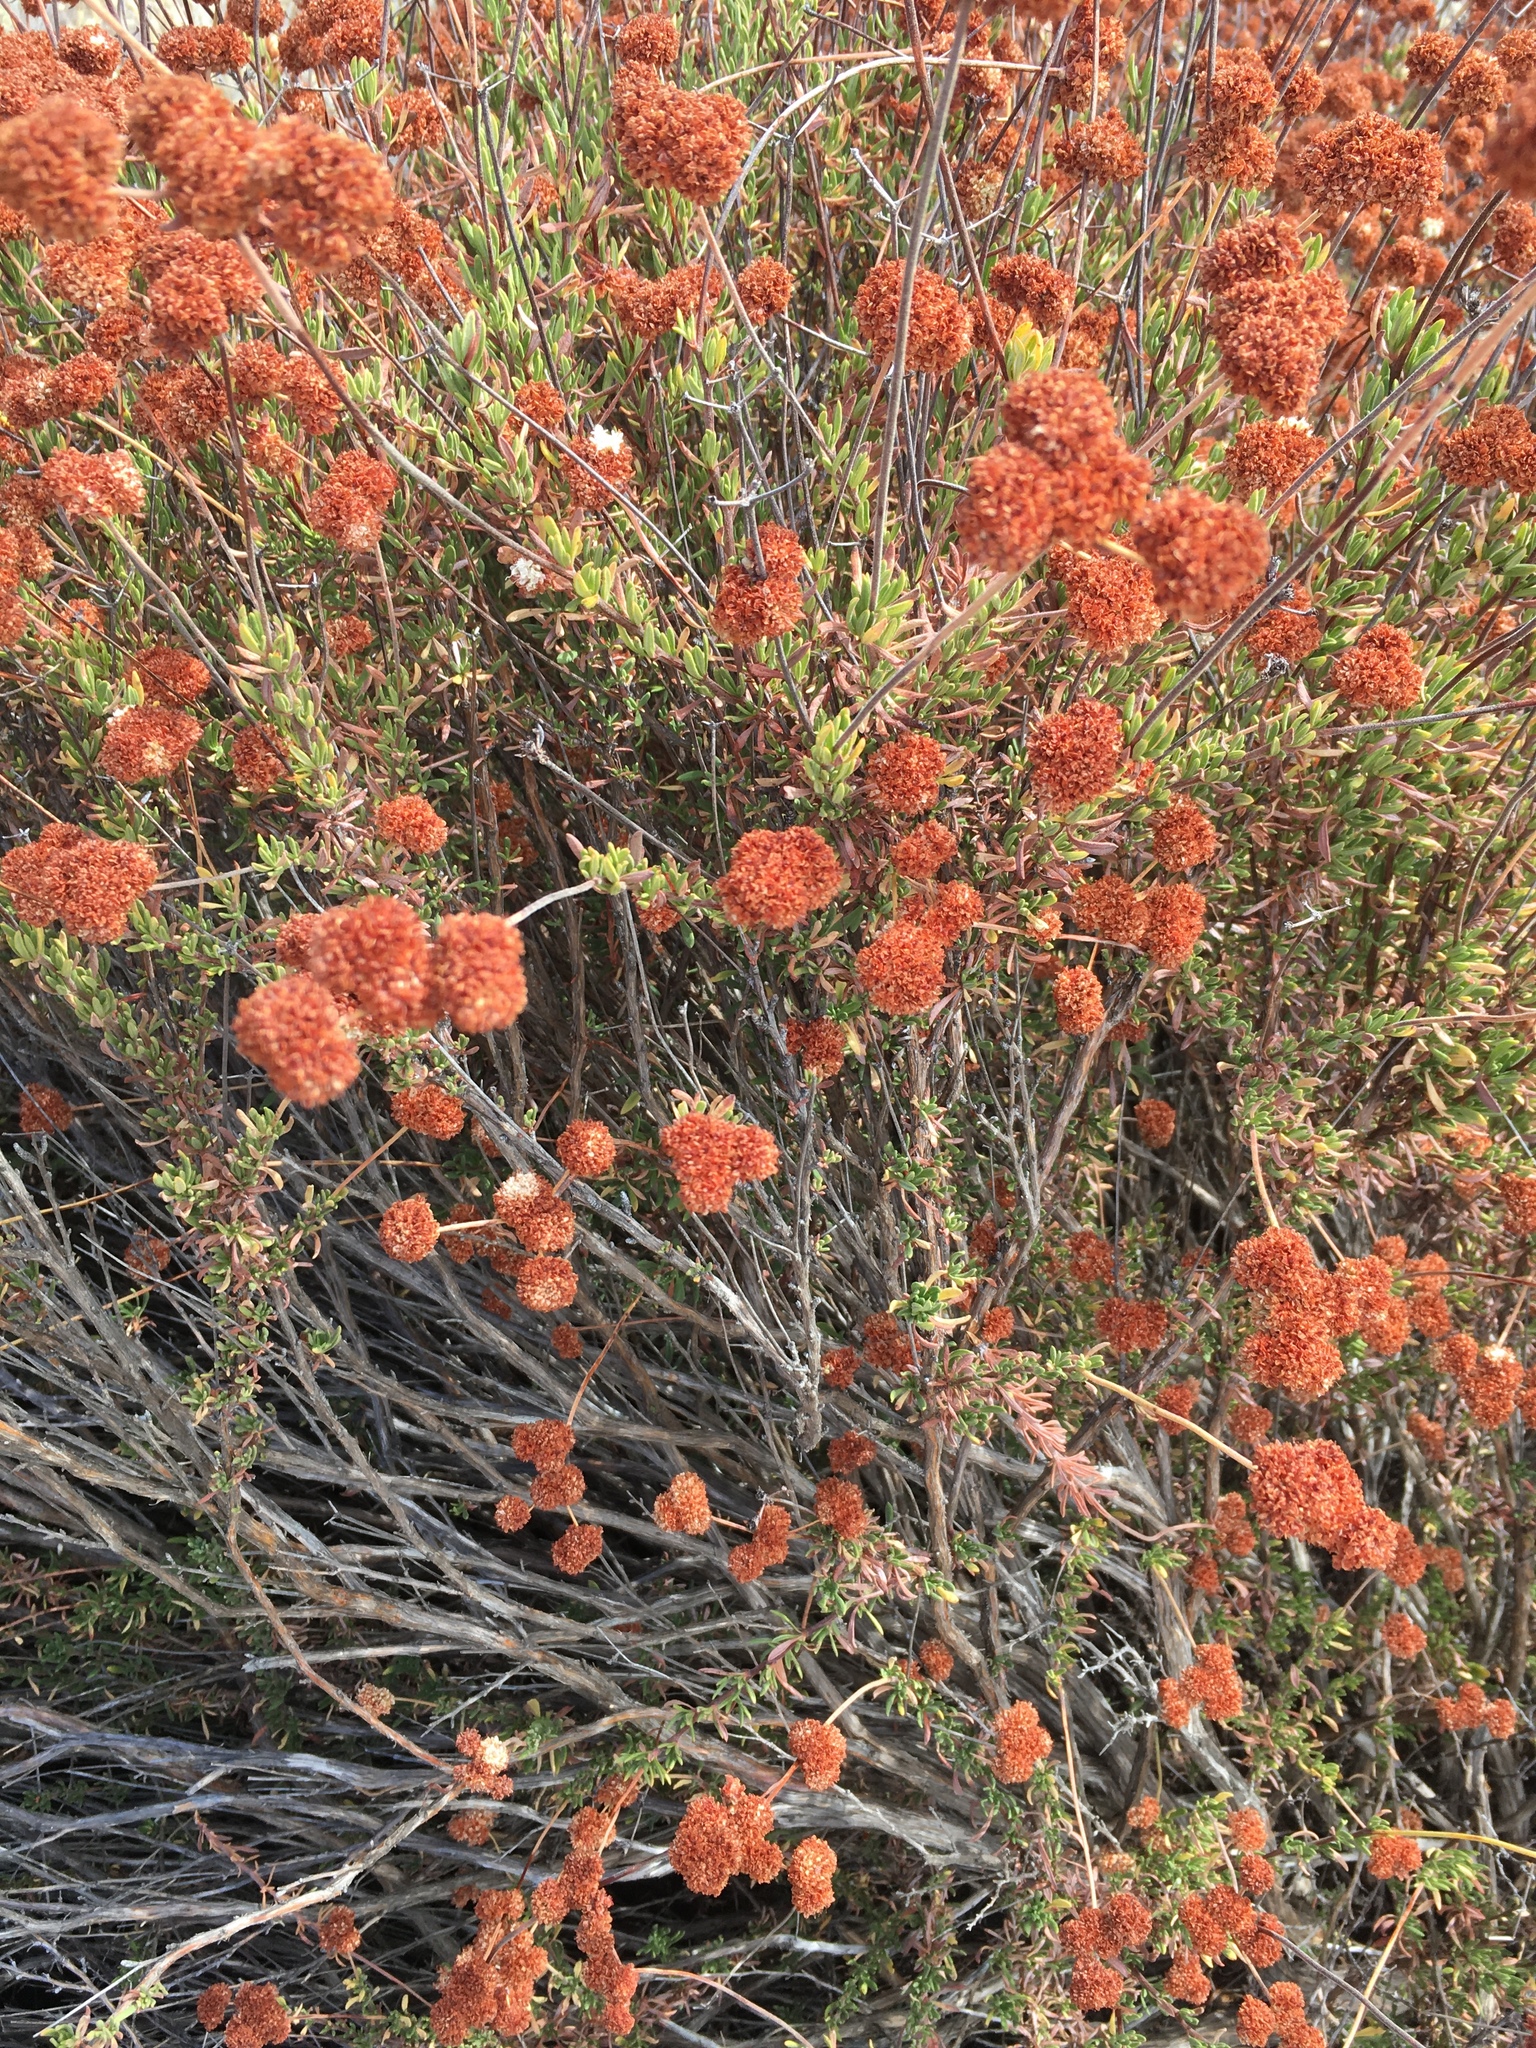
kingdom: Plantae
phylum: Tracheophyta
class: Magnoliopsida
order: Caryophyllales
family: Polygonaceae
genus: Eriogonum
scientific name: Eriogonum fasciculatum
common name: California wild buckwheat
